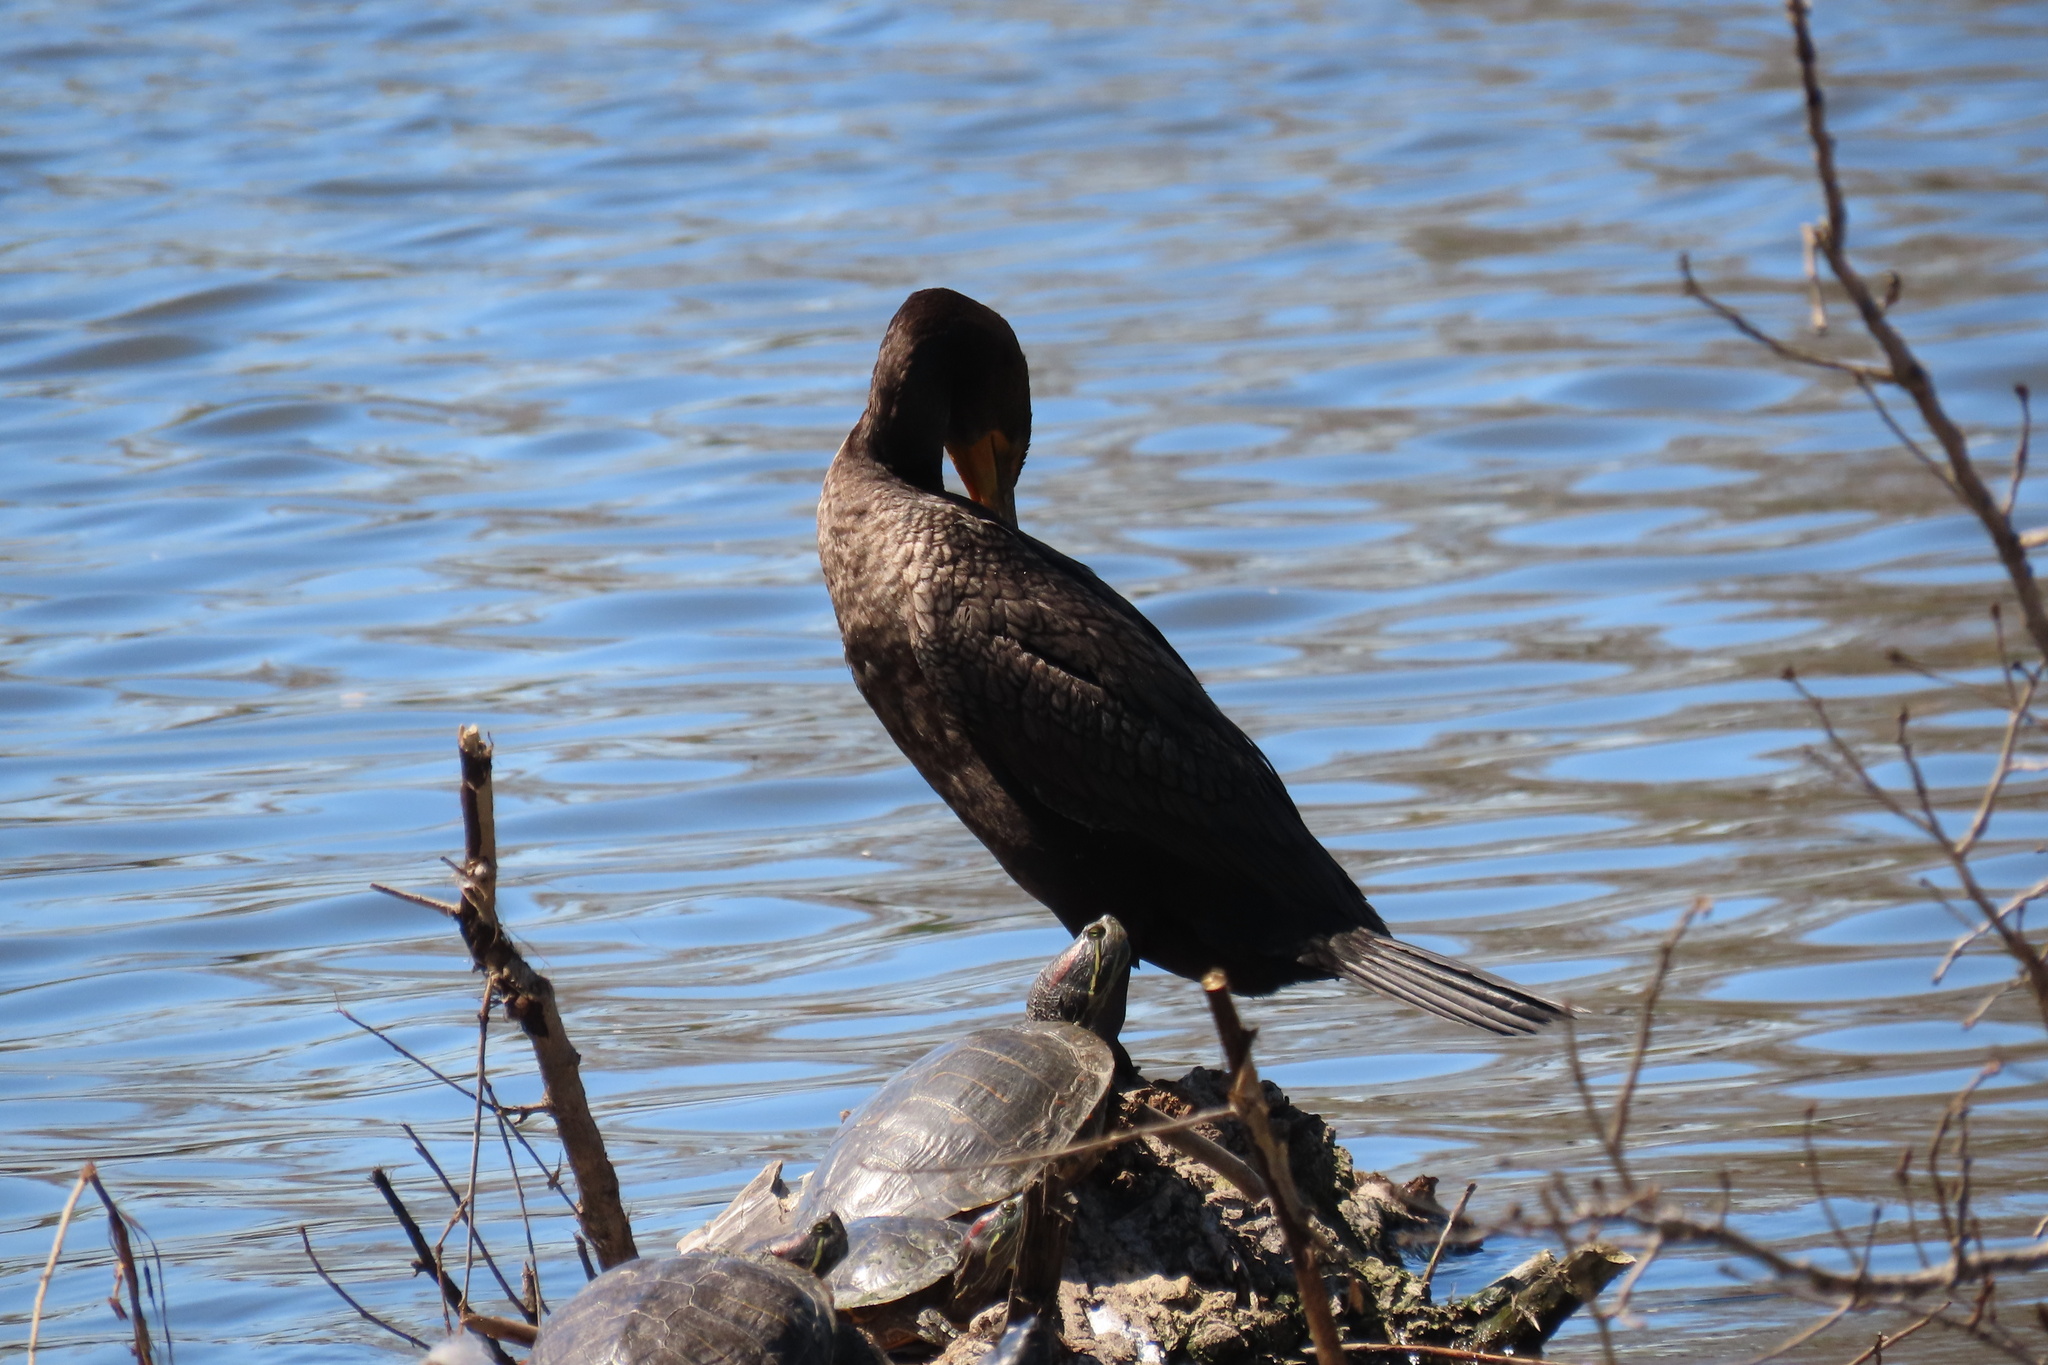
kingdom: Animalia
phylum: Chordata
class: Aves
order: Suliformes
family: Phalacrocoracidae
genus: Phalacrocorax
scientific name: Phalacrocorax auritus
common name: Double-crested cormorant
